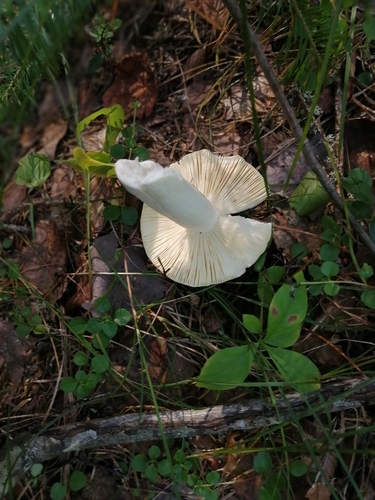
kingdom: Fungi
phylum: Basidiomycota
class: Agaricomycetes
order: Russulales
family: Russulaceae
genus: Russula
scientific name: Russula
